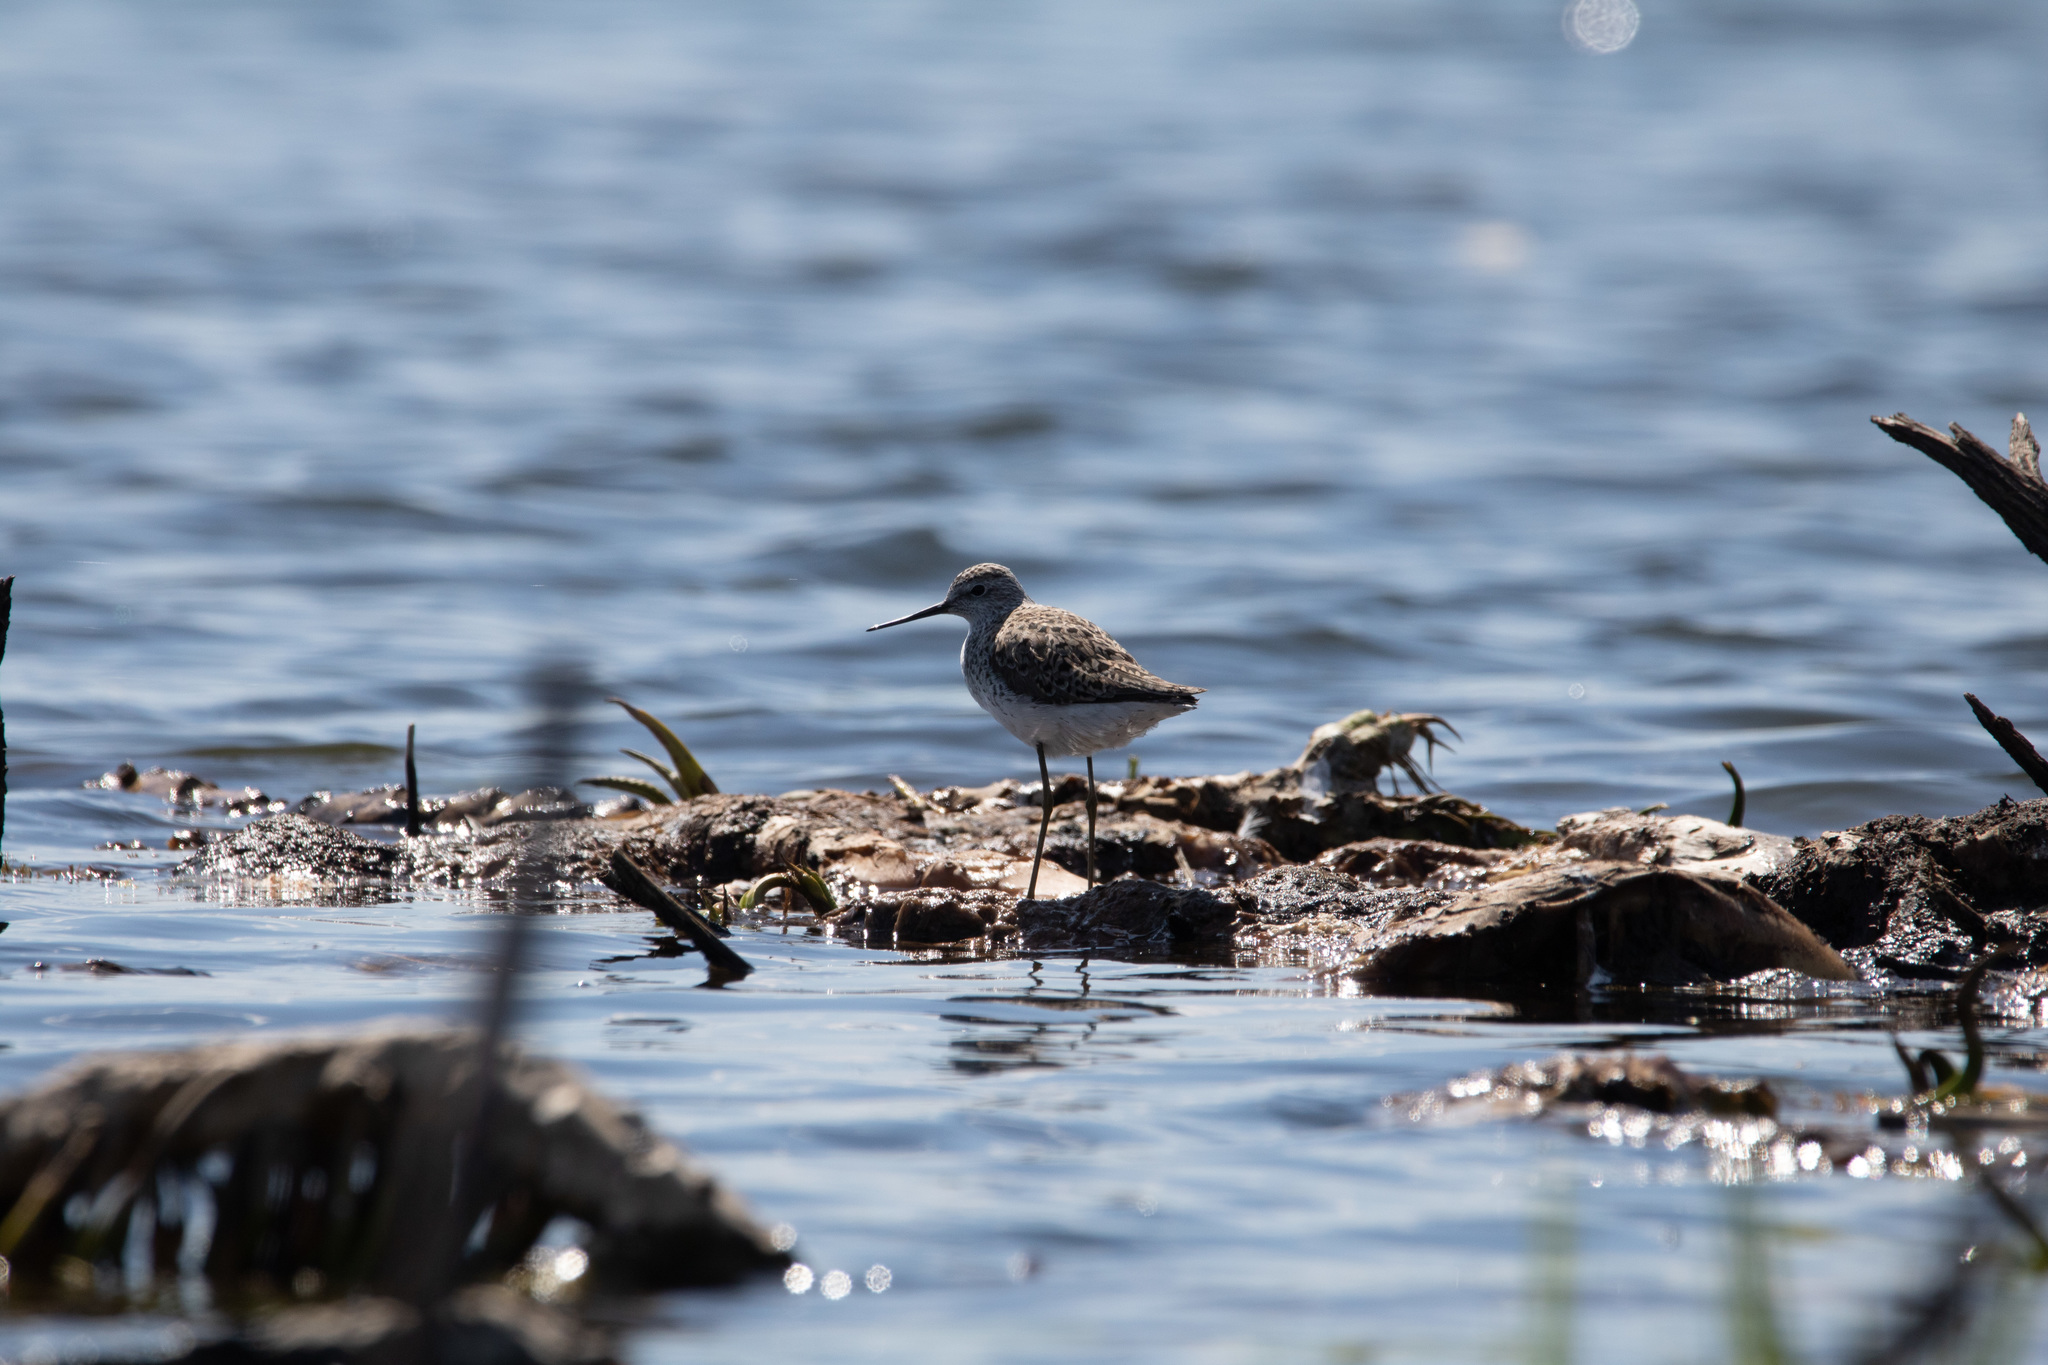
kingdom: Animalia
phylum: Chordata
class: Aves
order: Charadriiformes
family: Scolopacidae
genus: Tringa
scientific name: Tringa stagnatilis
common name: Marsh sandpiper
